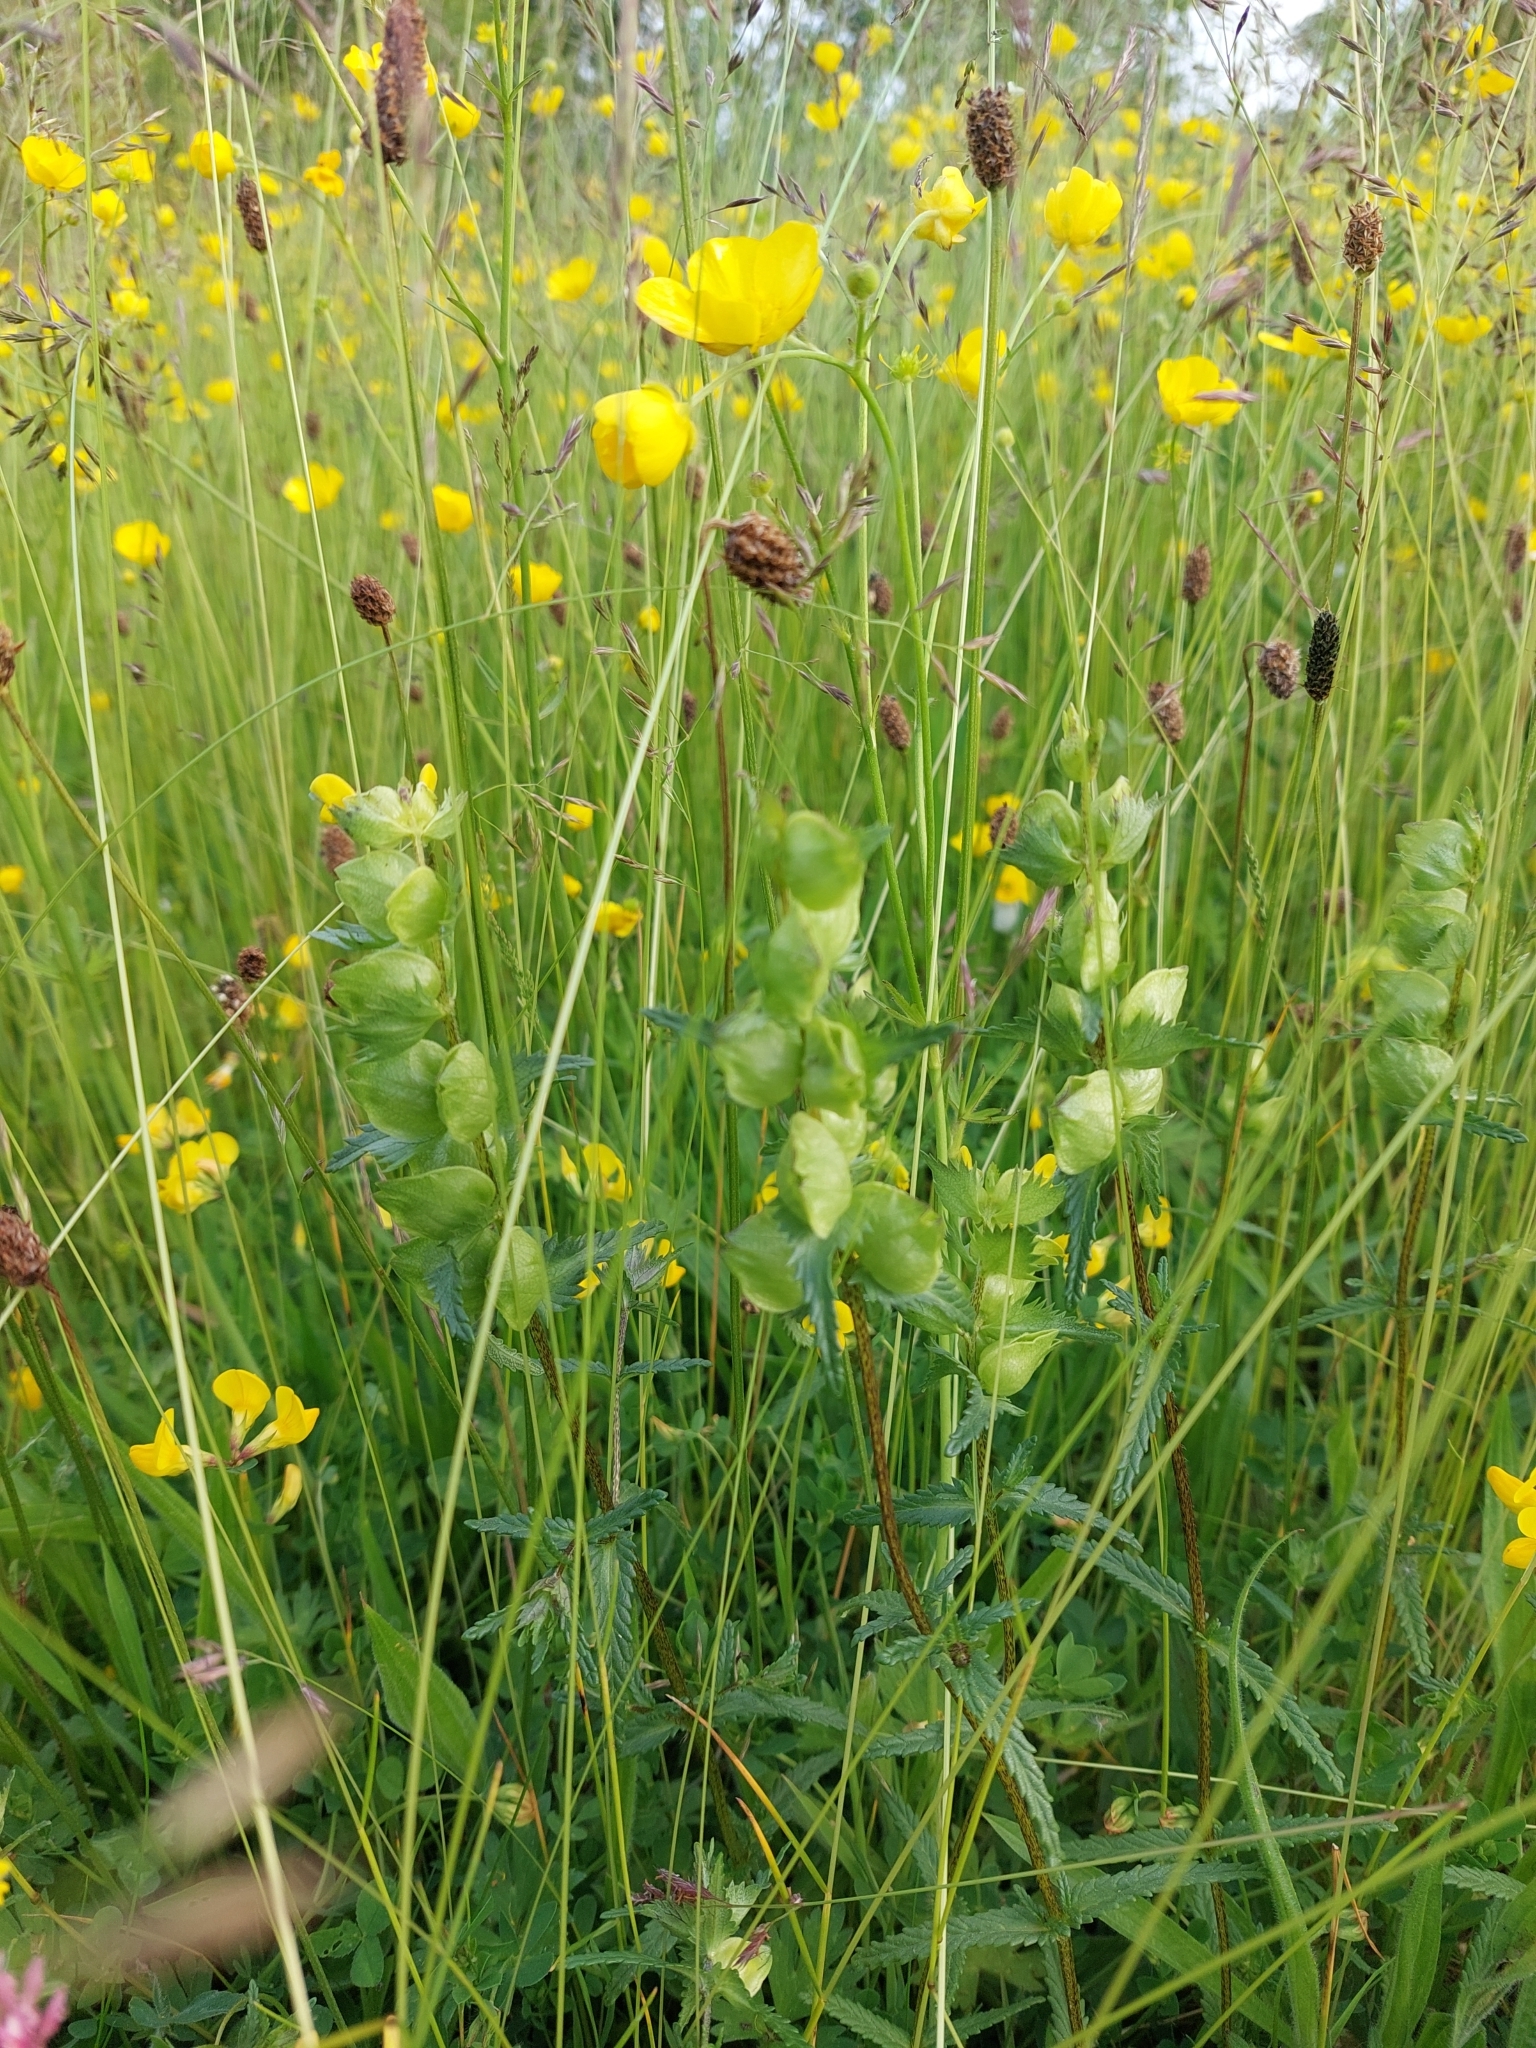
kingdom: Plantae
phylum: Tracheophyta
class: Magnoliopsida
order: Lamiales
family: Orobanchaceae
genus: Rhinanthus
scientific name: Rhinanthus minor
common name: Yellow-rattle
